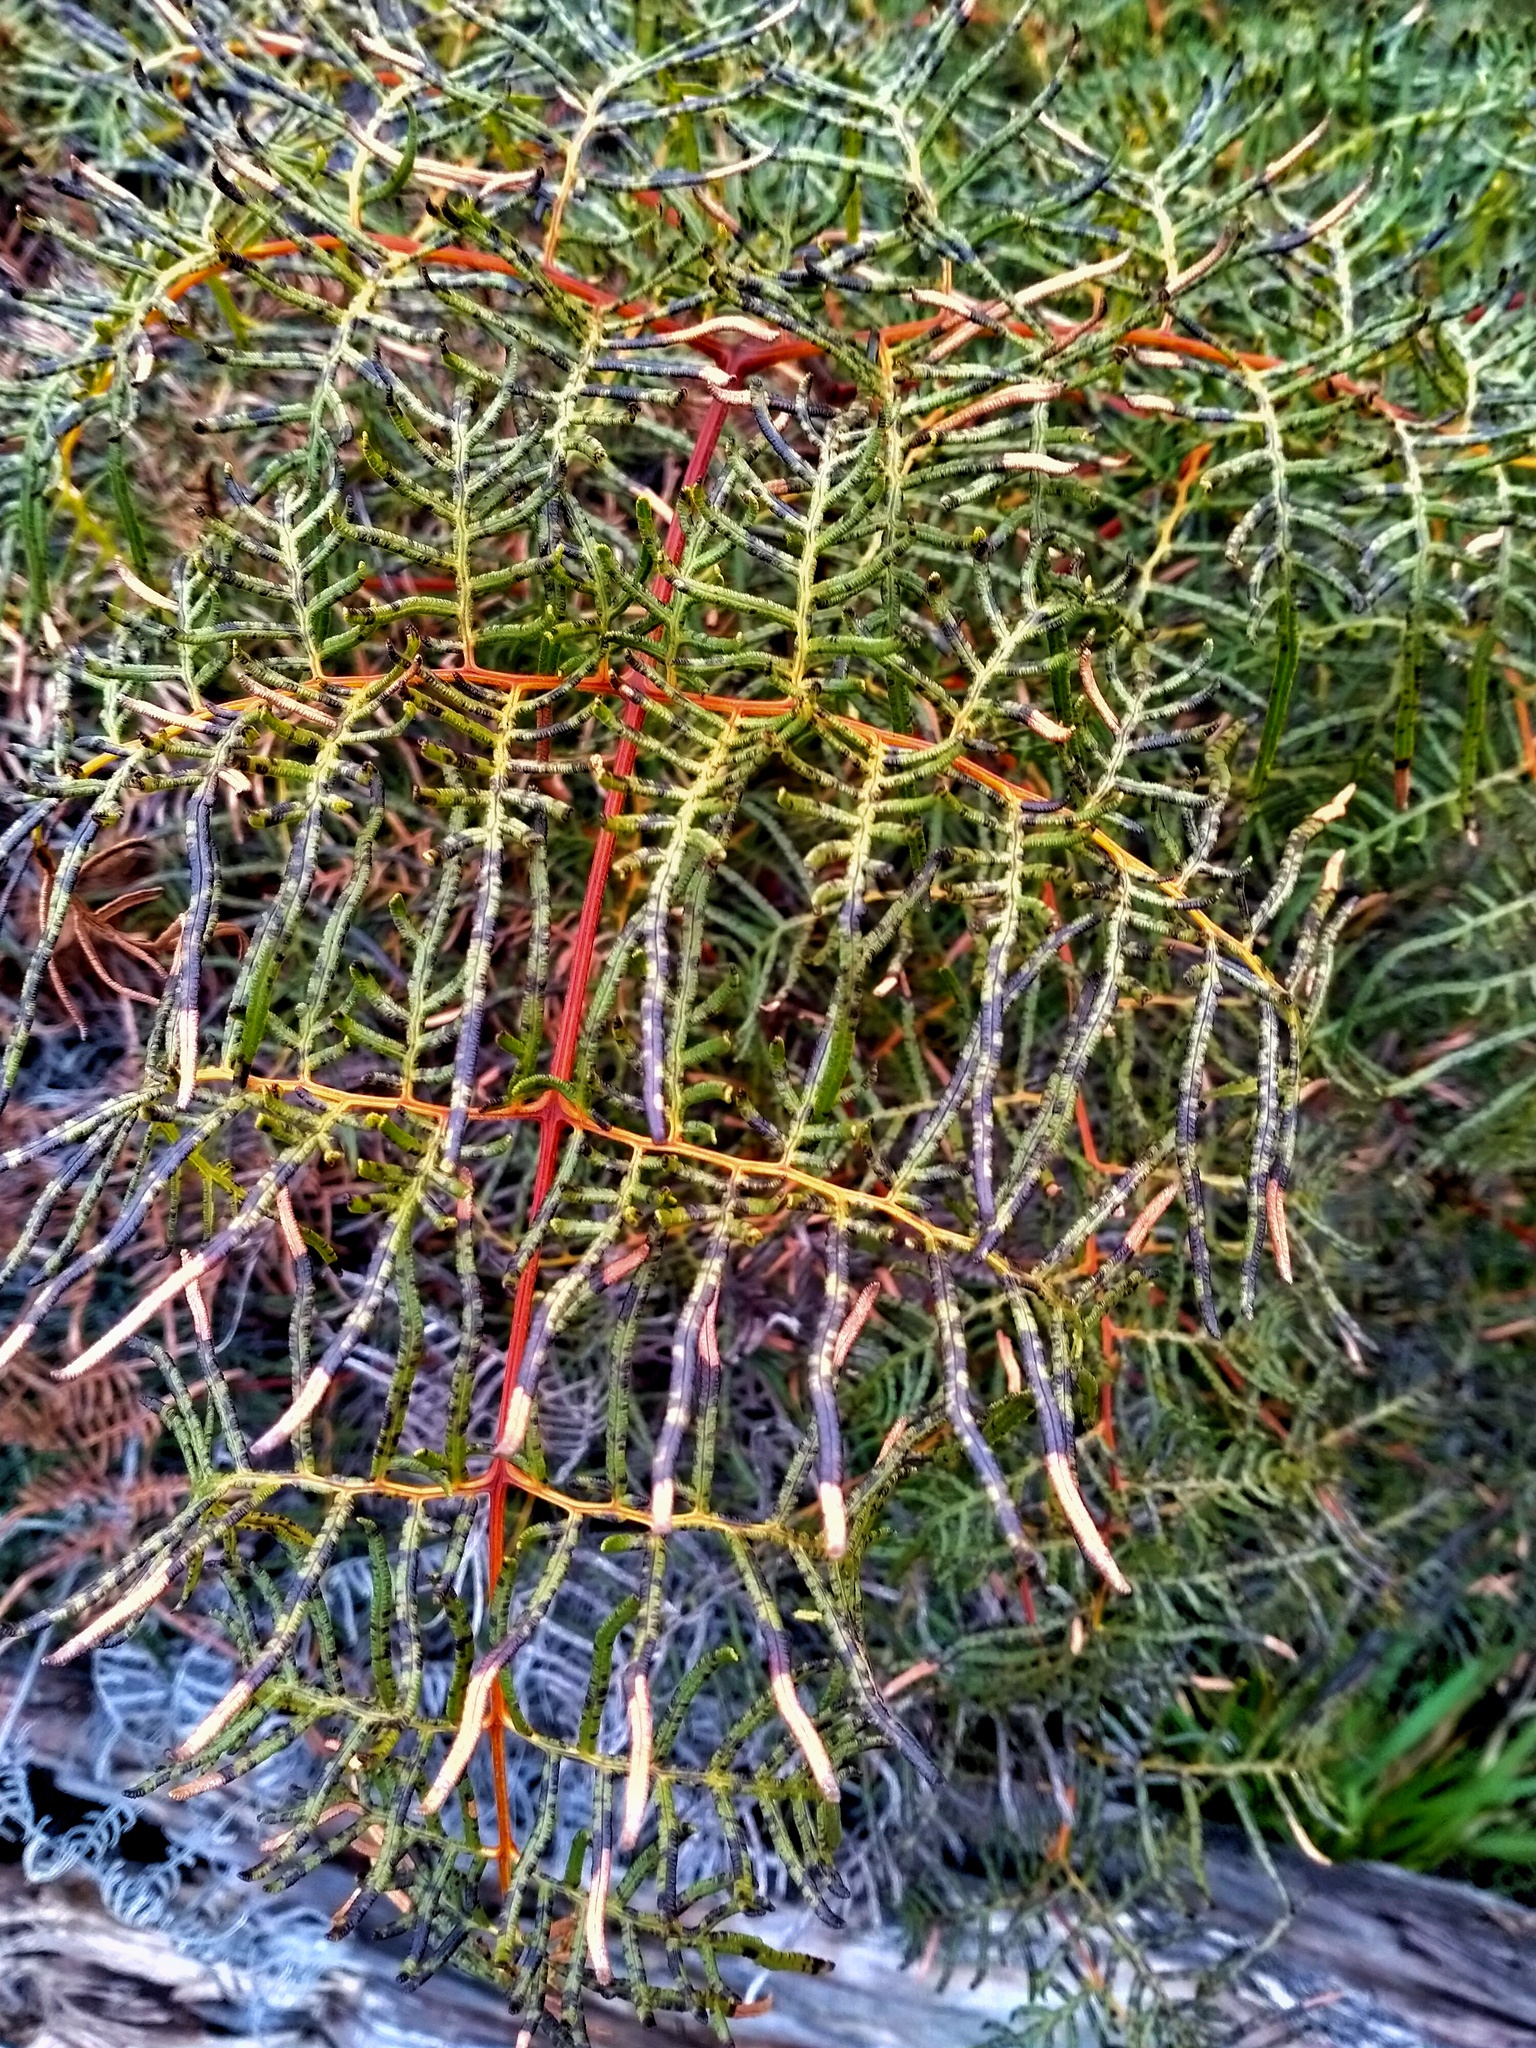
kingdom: Plantae
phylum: Tracheophyta
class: Polypodiopsida
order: Polypodiales
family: Dennstaedtiaceae
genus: Pteridium
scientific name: Pteridium esculentum
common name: Bracken fern
